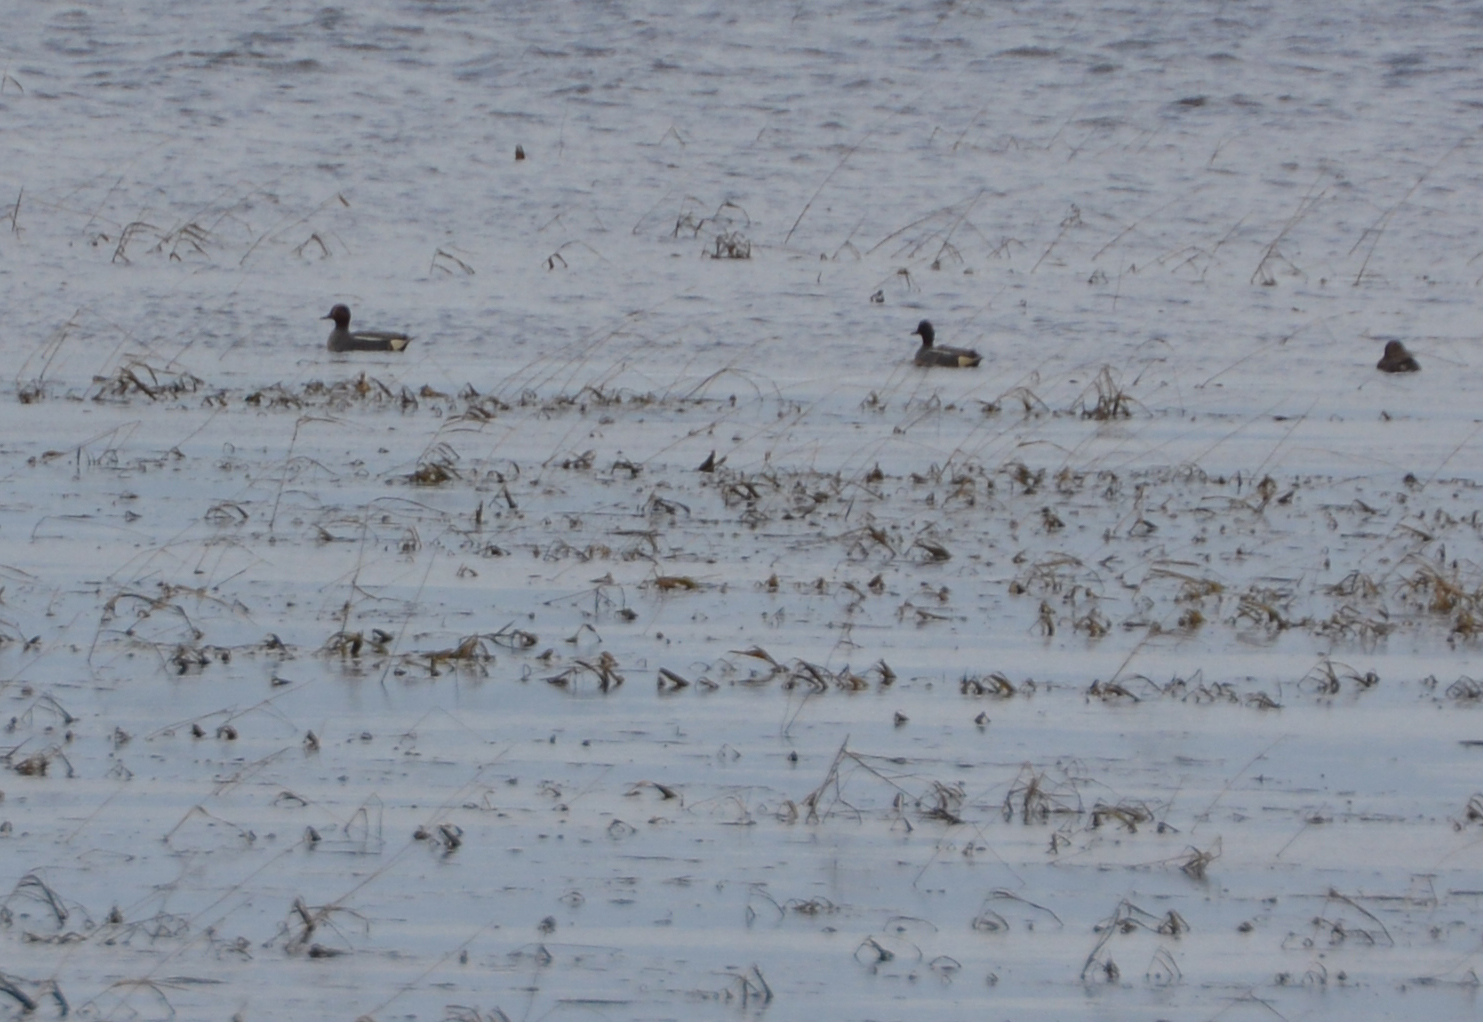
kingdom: Animalia
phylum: Chordata
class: Aves
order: Anseriformes
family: Anatidae
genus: Anas
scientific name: Anas crecca
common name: Eurasian teal
